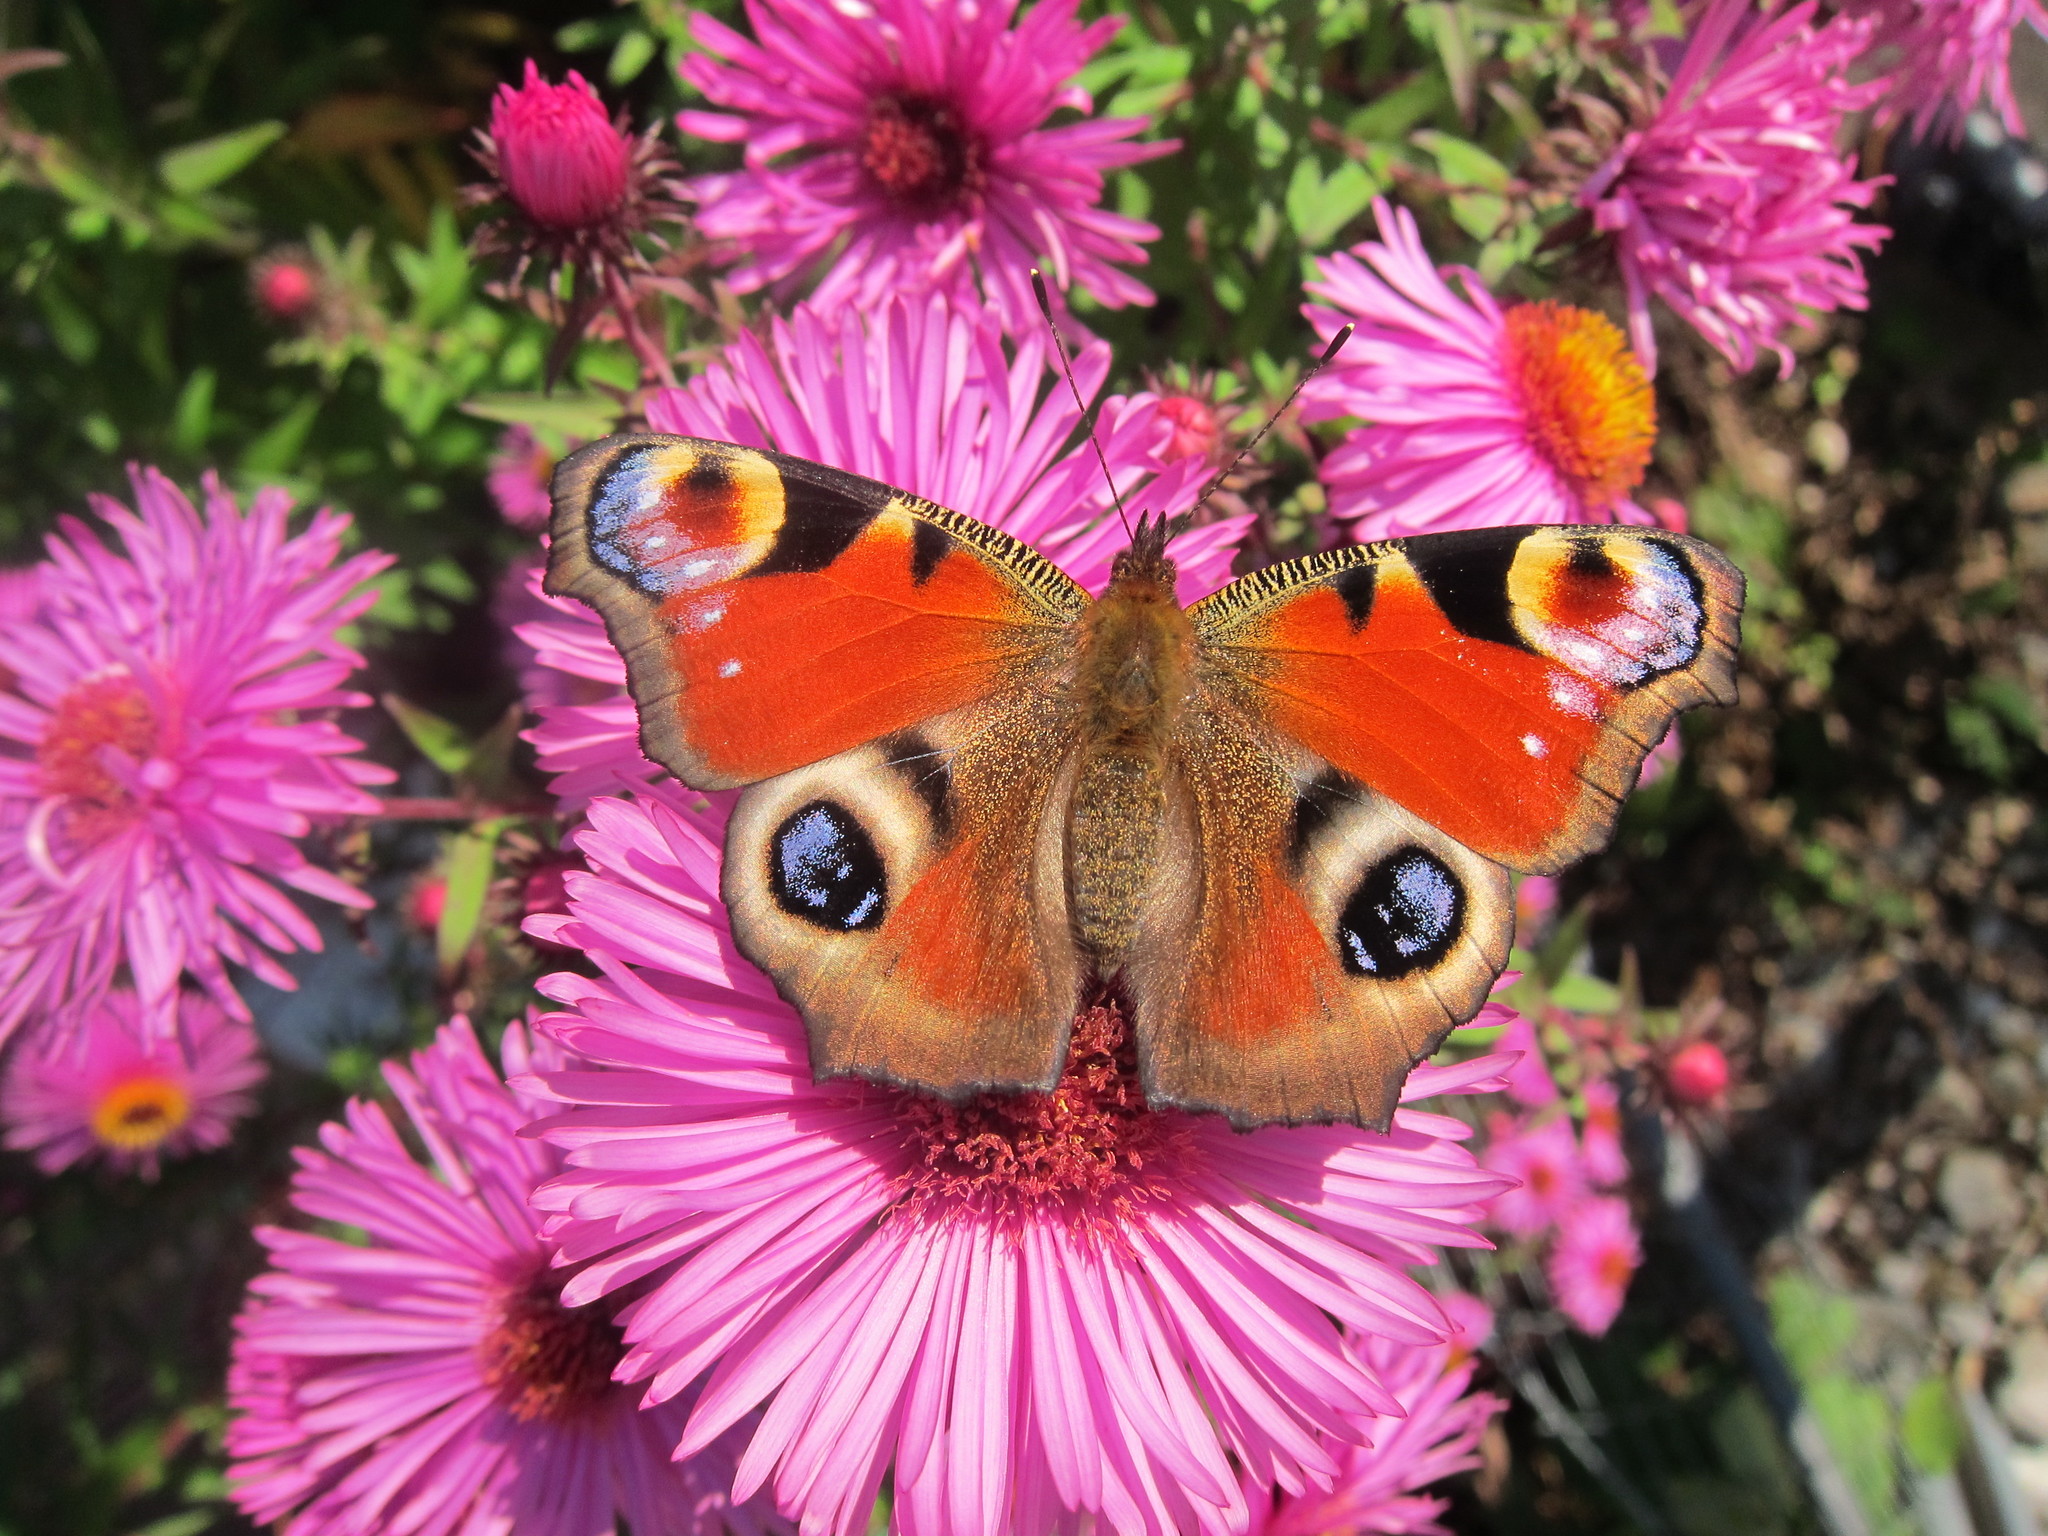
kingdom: Animalia
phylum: Arthropoda
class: Insecta
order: Lepidoptera
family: Nymphalidae
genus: Aglais
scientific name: Aglais io
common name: Peacock
